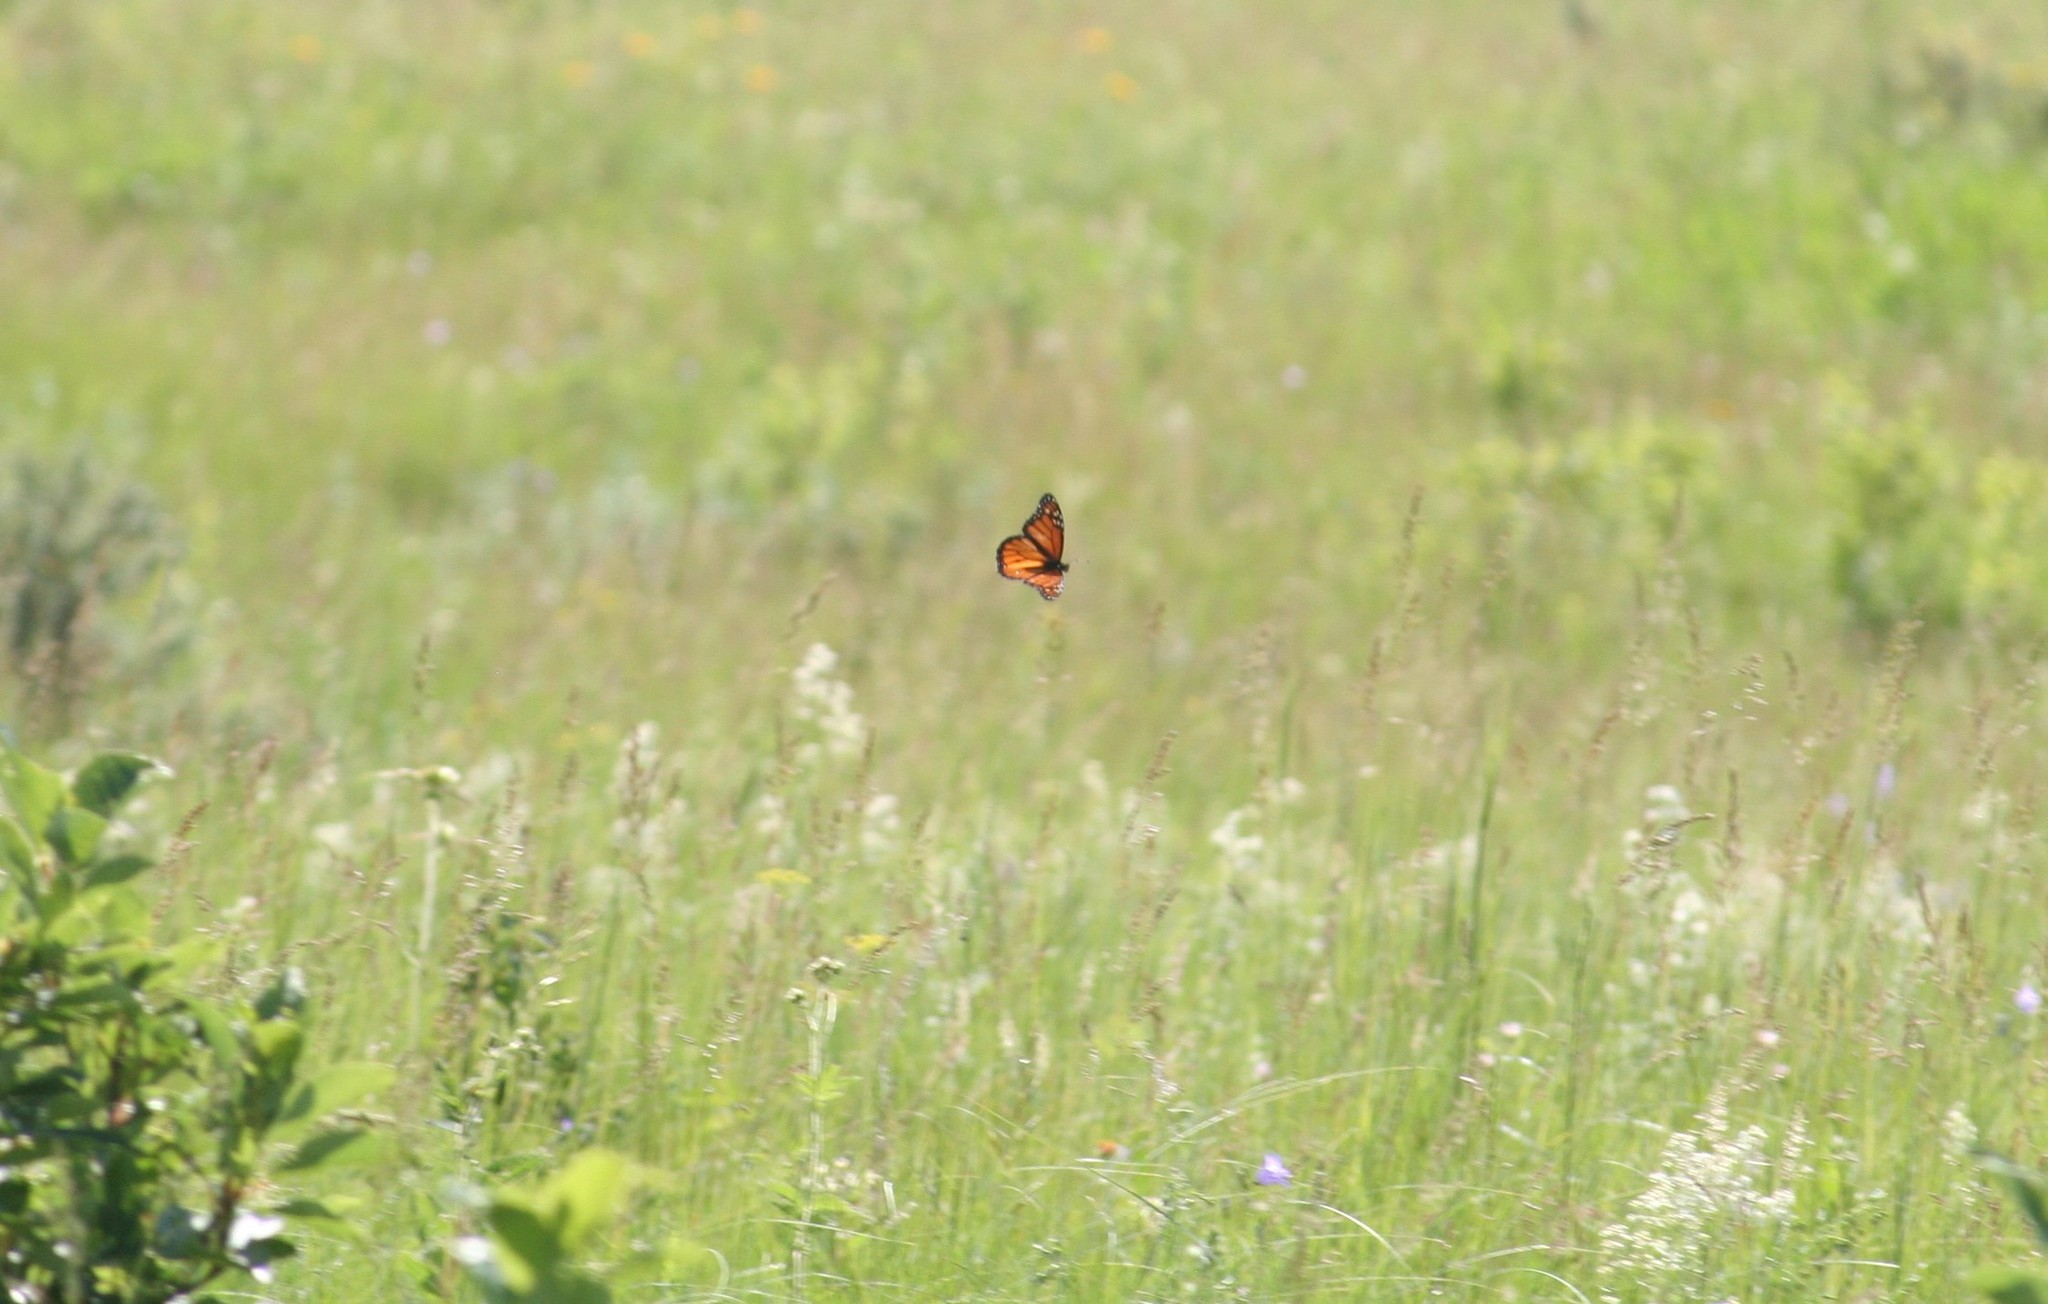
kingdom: Animalia
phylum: Arthropoda
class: Insecta
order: Lepidoptera
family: Nymphalidae
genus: Danaus
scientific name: Danaus plexippus
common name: Monarch
